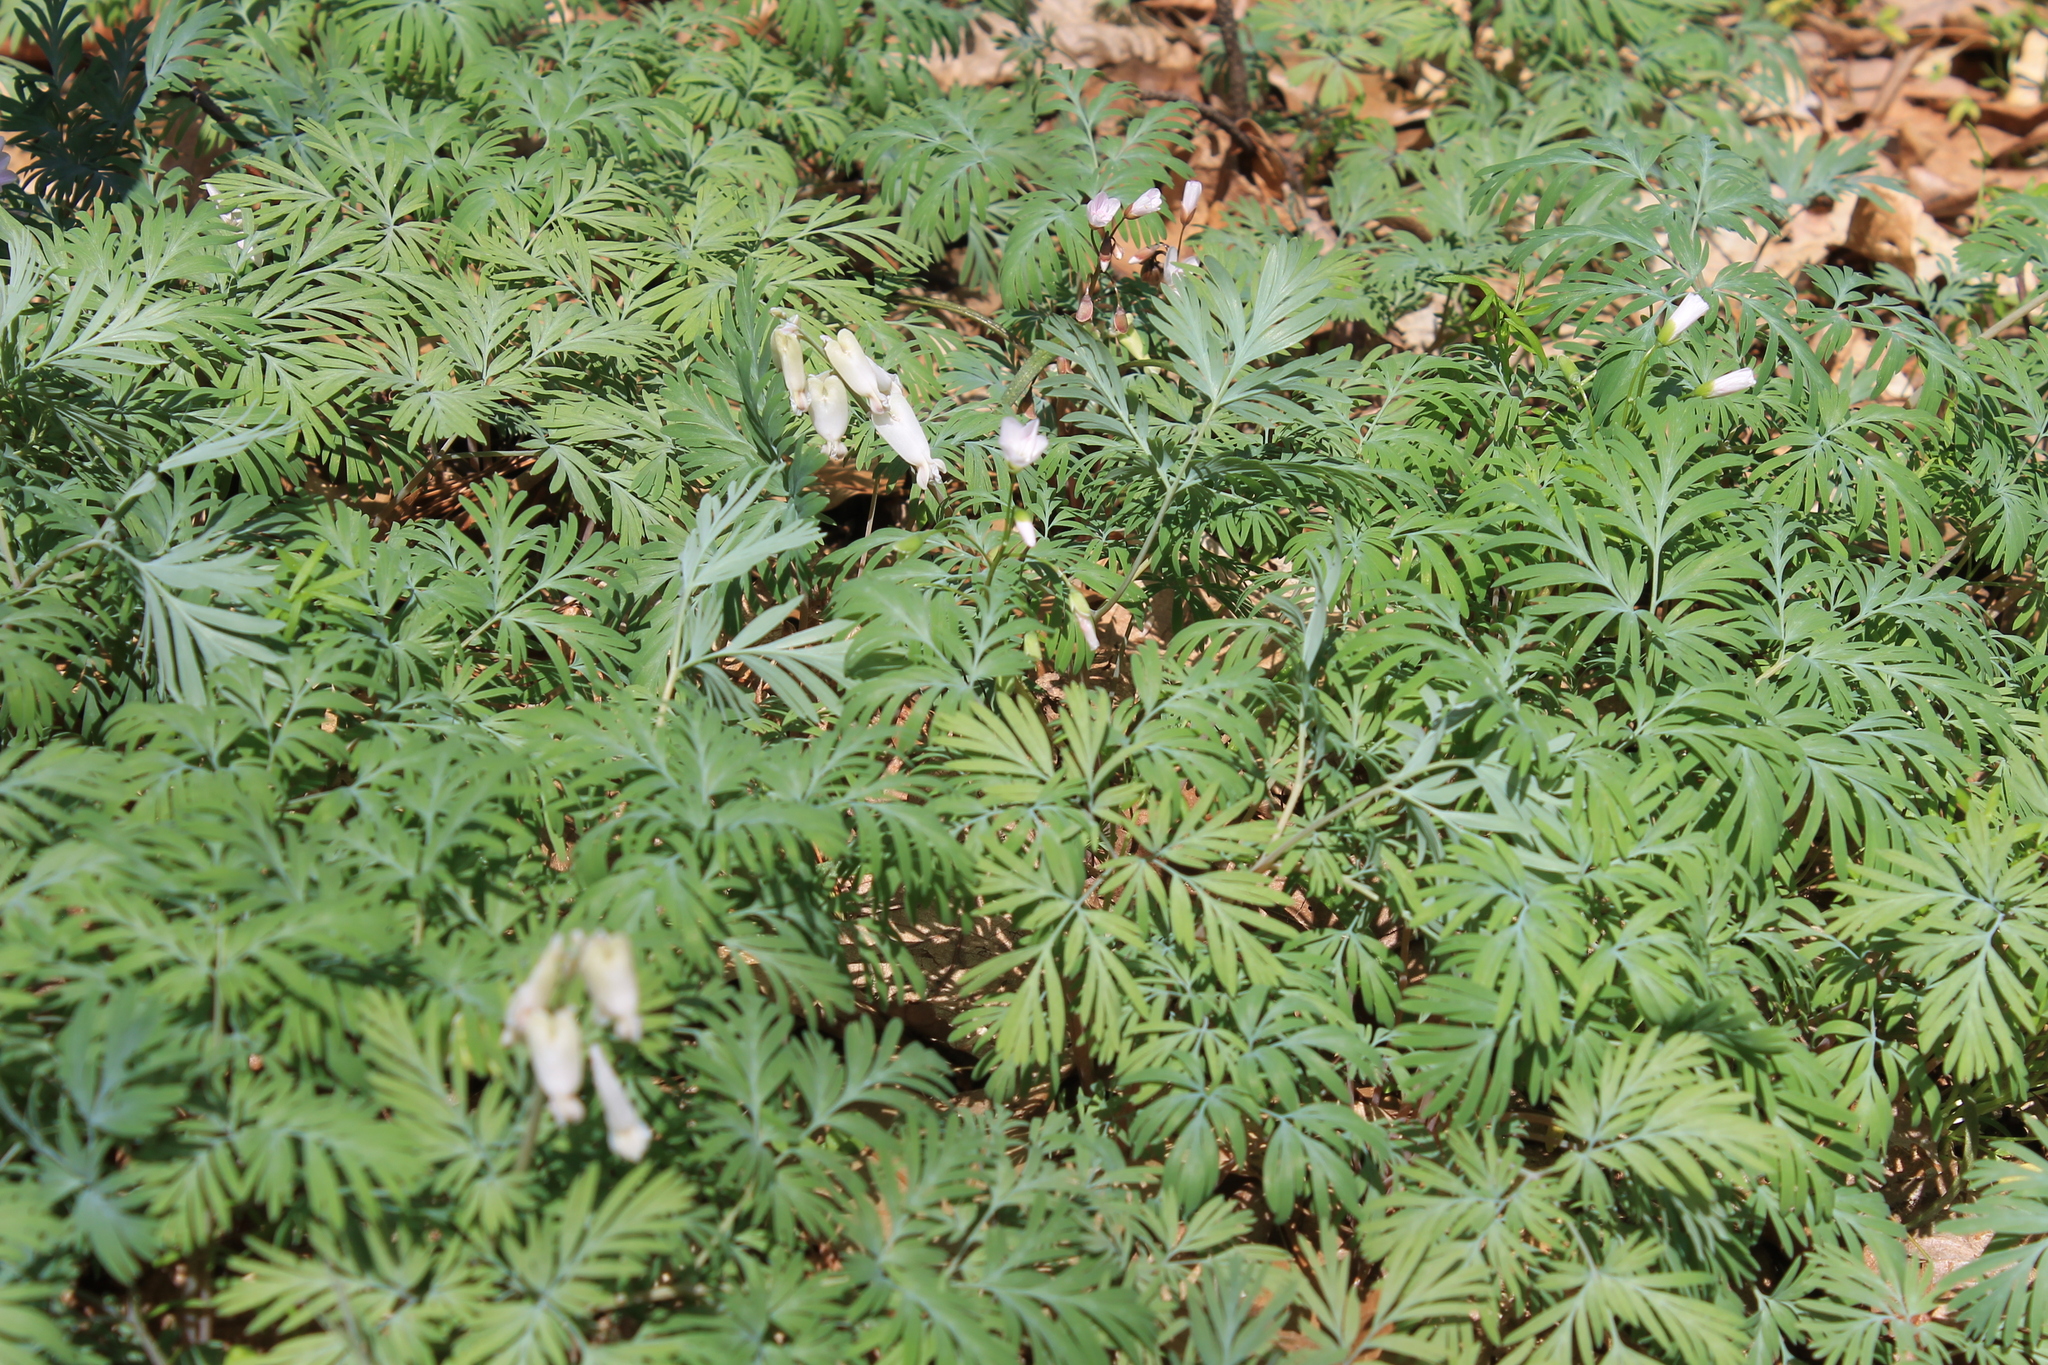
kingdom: Plantae
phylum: Tracheophyta
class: Magnoliopsida
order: Ranunculales
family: Papaveraceae
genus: Dicentra
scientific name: Dicentra canadensis
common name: Squirrel-corn
